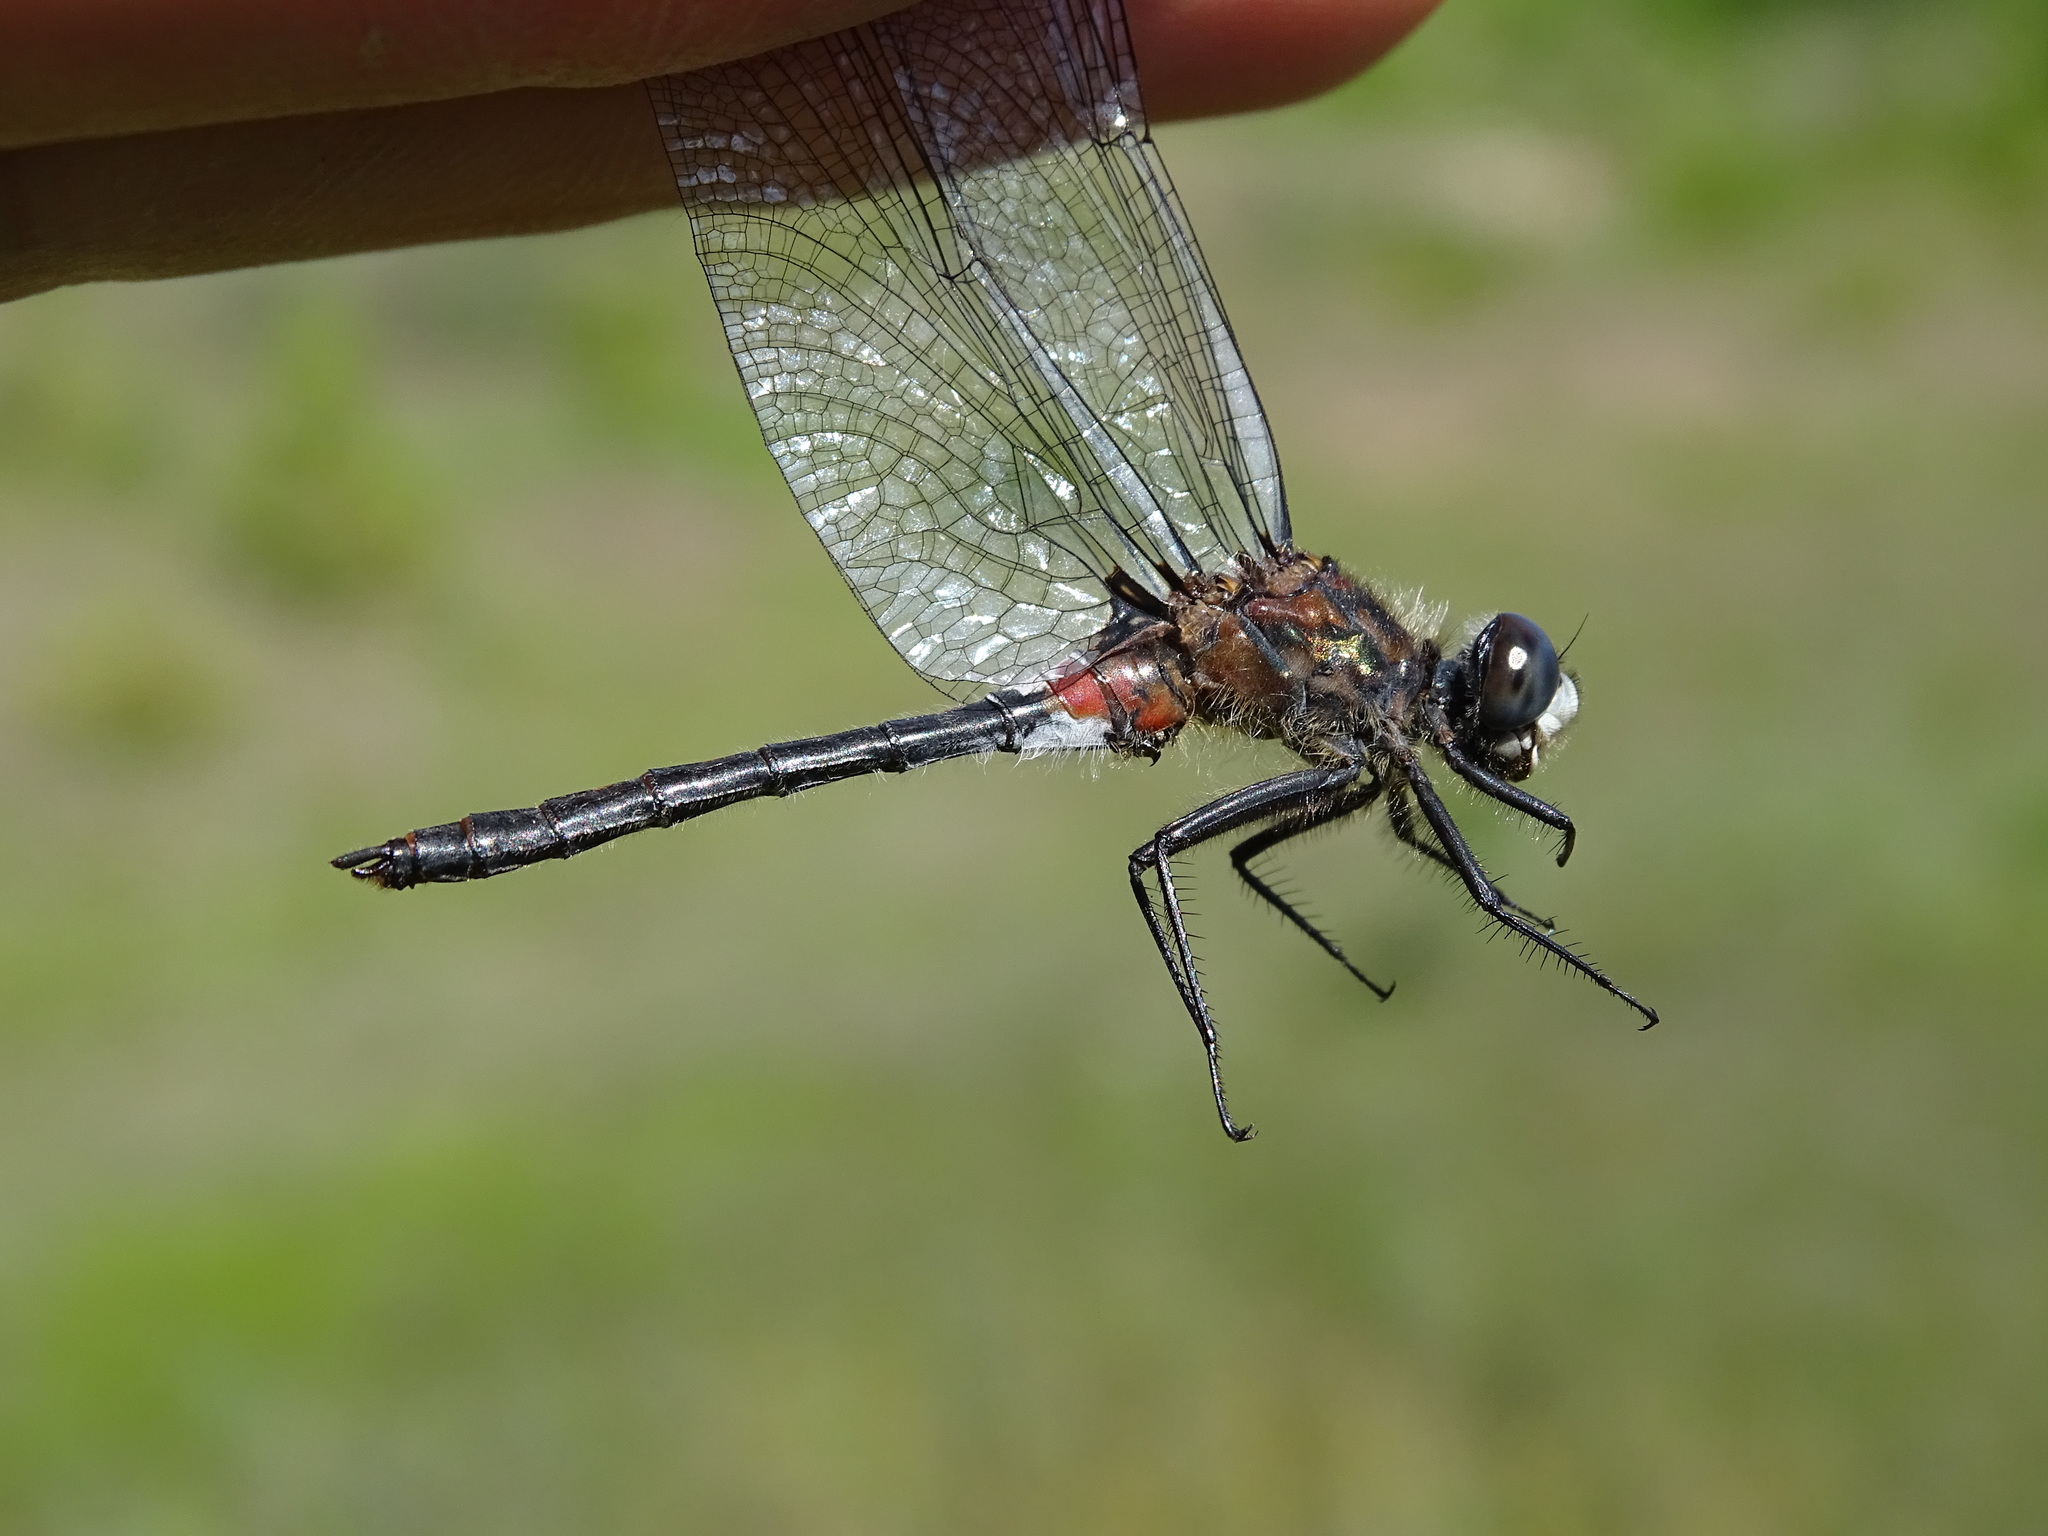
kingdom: Animalia
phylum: Arthropoda
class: Insecta
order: Odonata
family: Libellulidae
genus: Leucorrhinia
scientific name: Leucorrhinia proxima
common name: Belted whiteface
